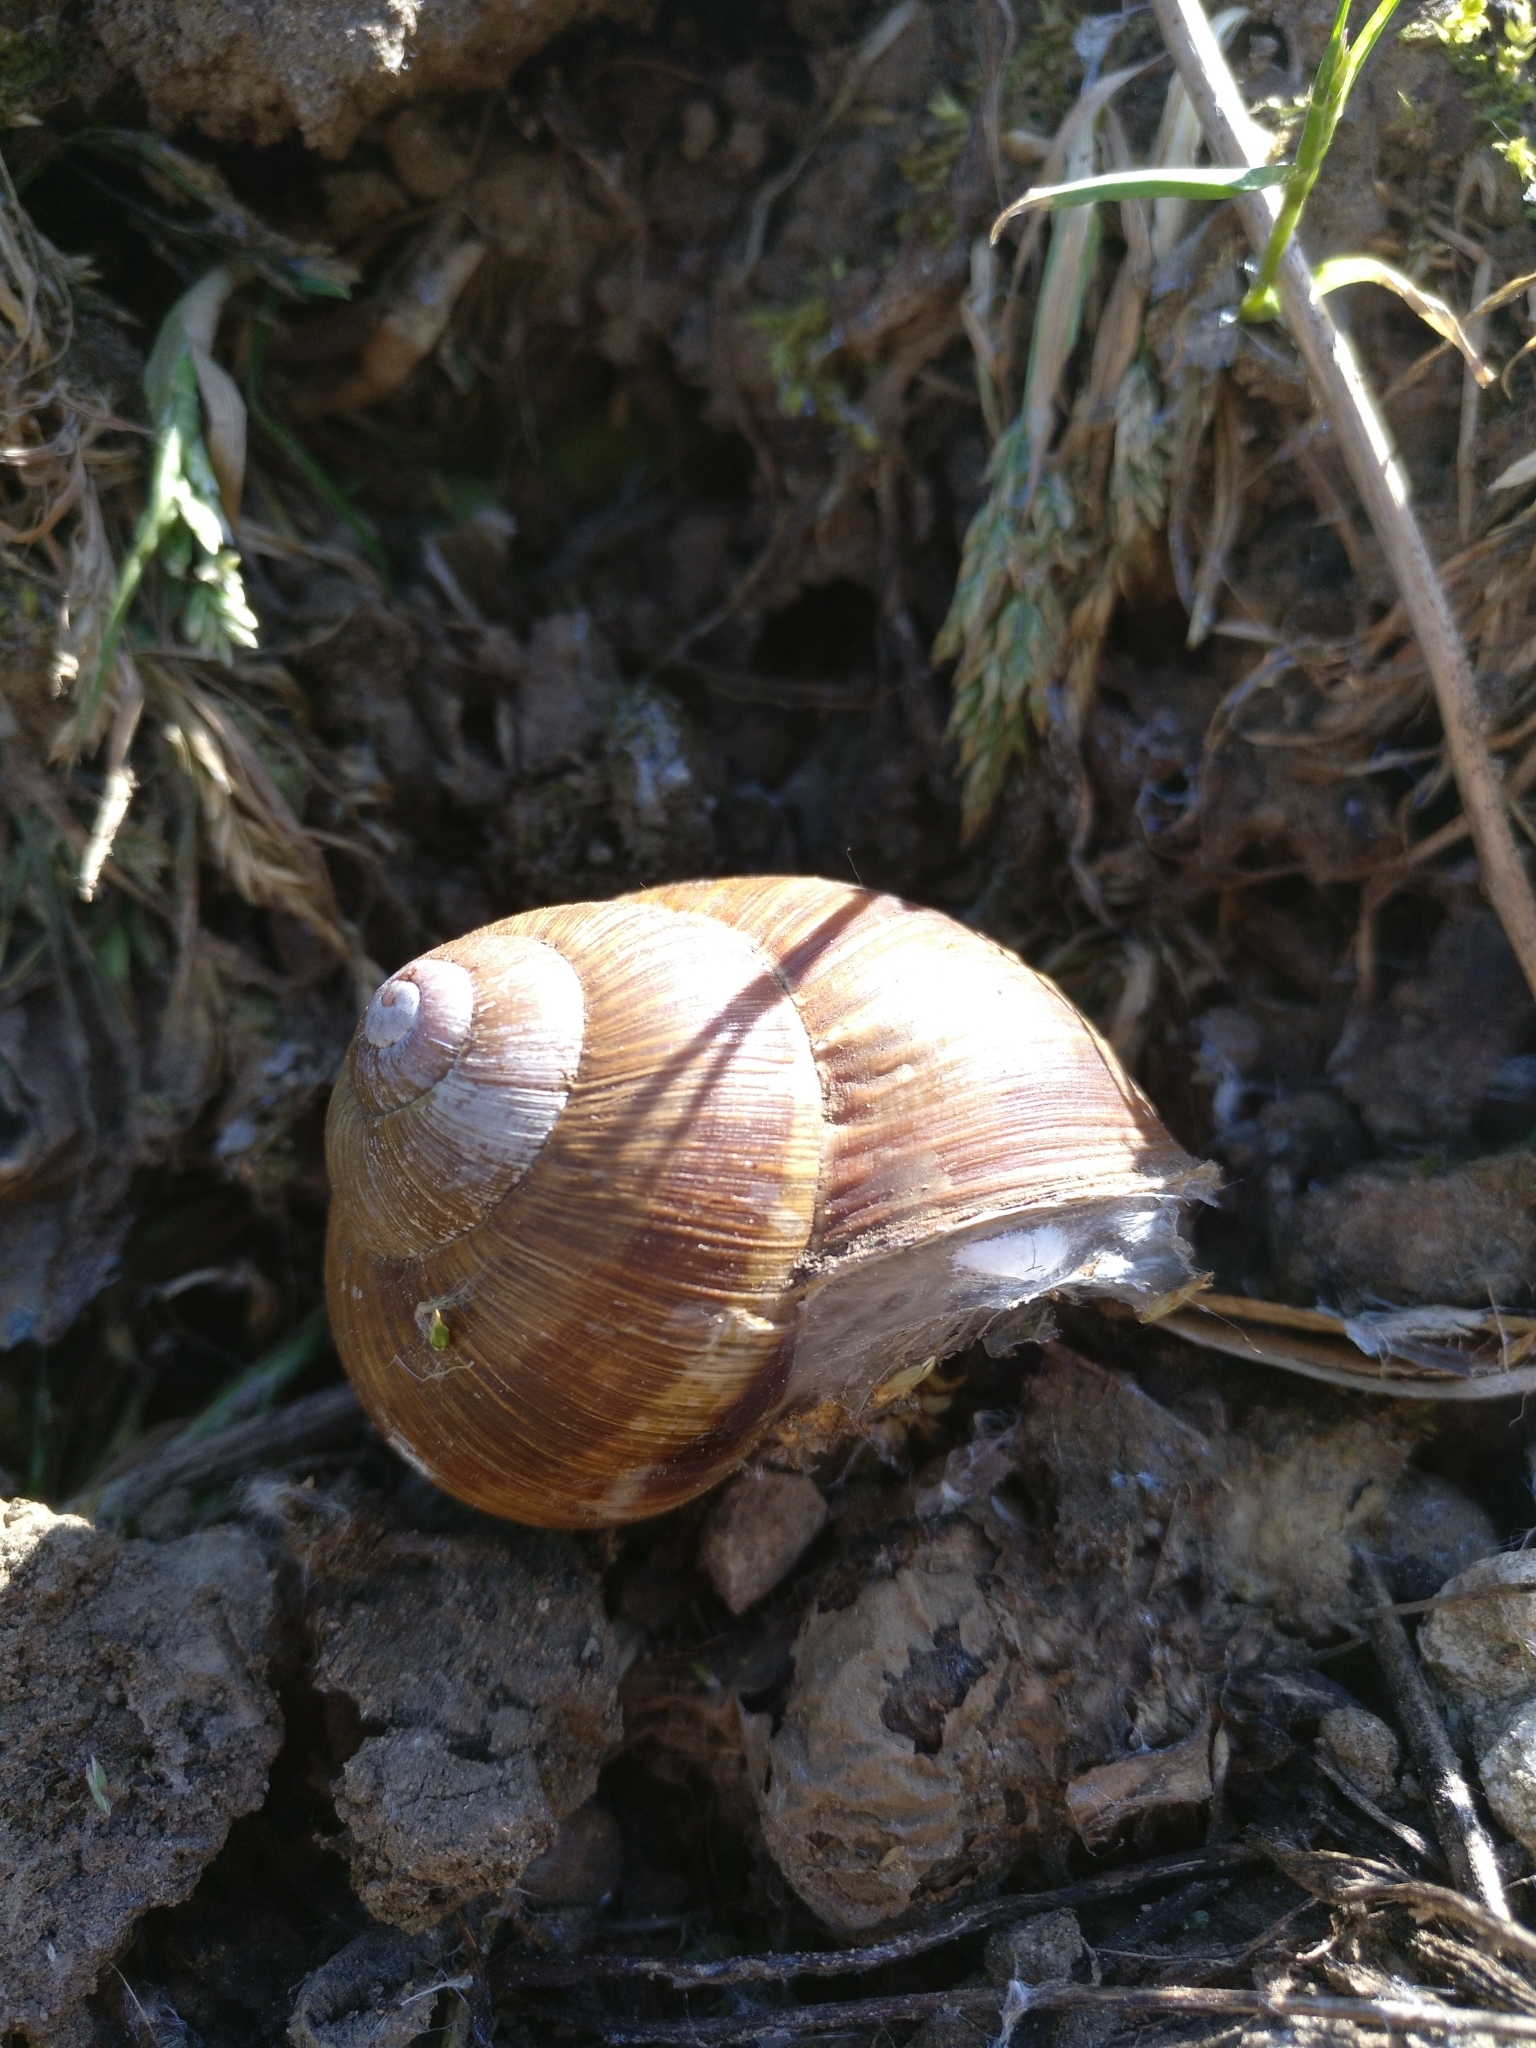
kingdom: Animalia
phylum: Mollusca
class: Gastropoda
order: Stylommatophora
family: Helicidae
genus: Helix
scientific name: Helix pomatia
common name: Roman snail
